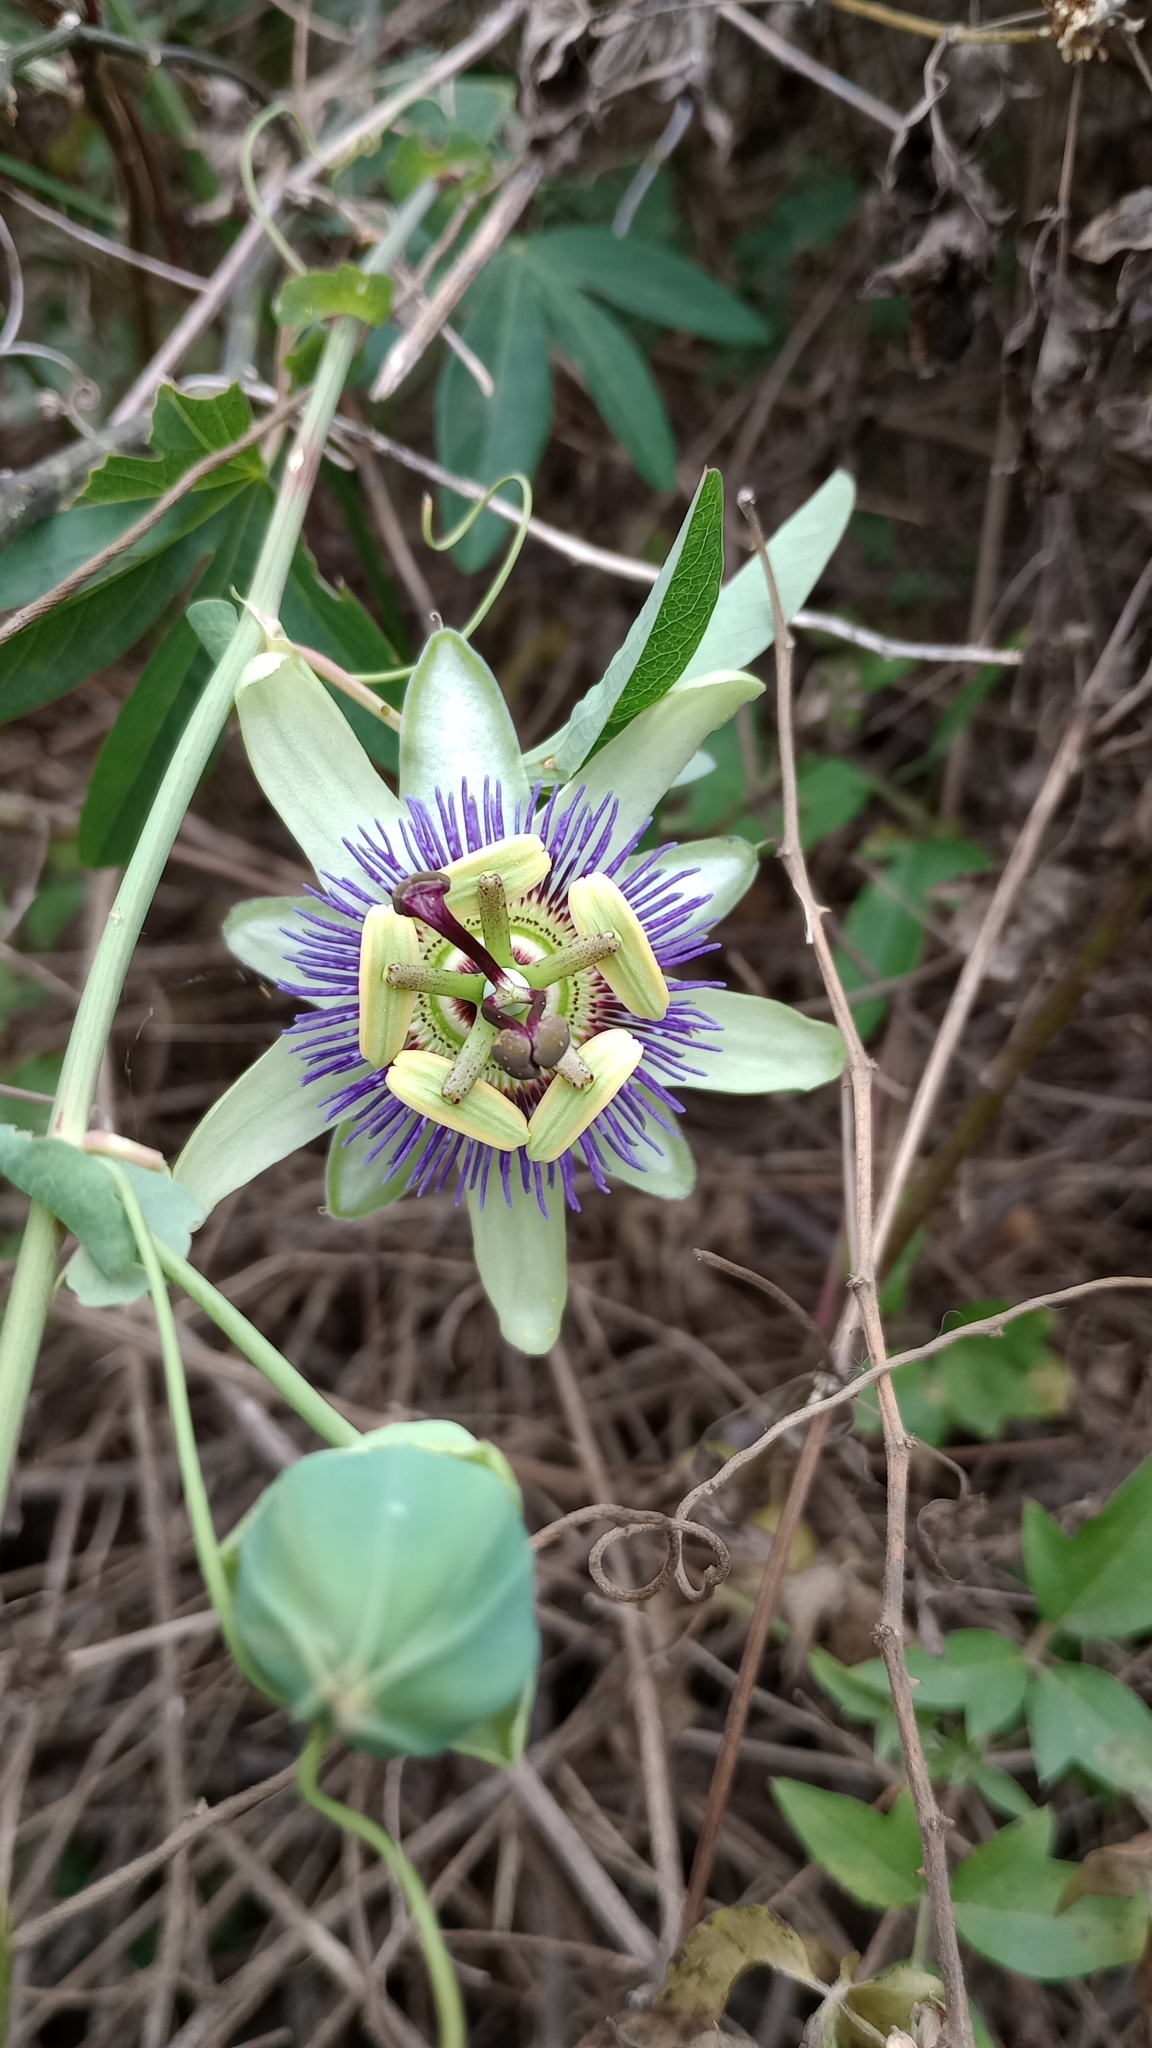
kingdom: Plantae
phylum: Tracheophyta
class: Magnoliopsida
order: Malpighiales
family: Passifloraceae
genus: Passiflora
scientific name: Passiflora caerulea
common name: Blue passionflower
